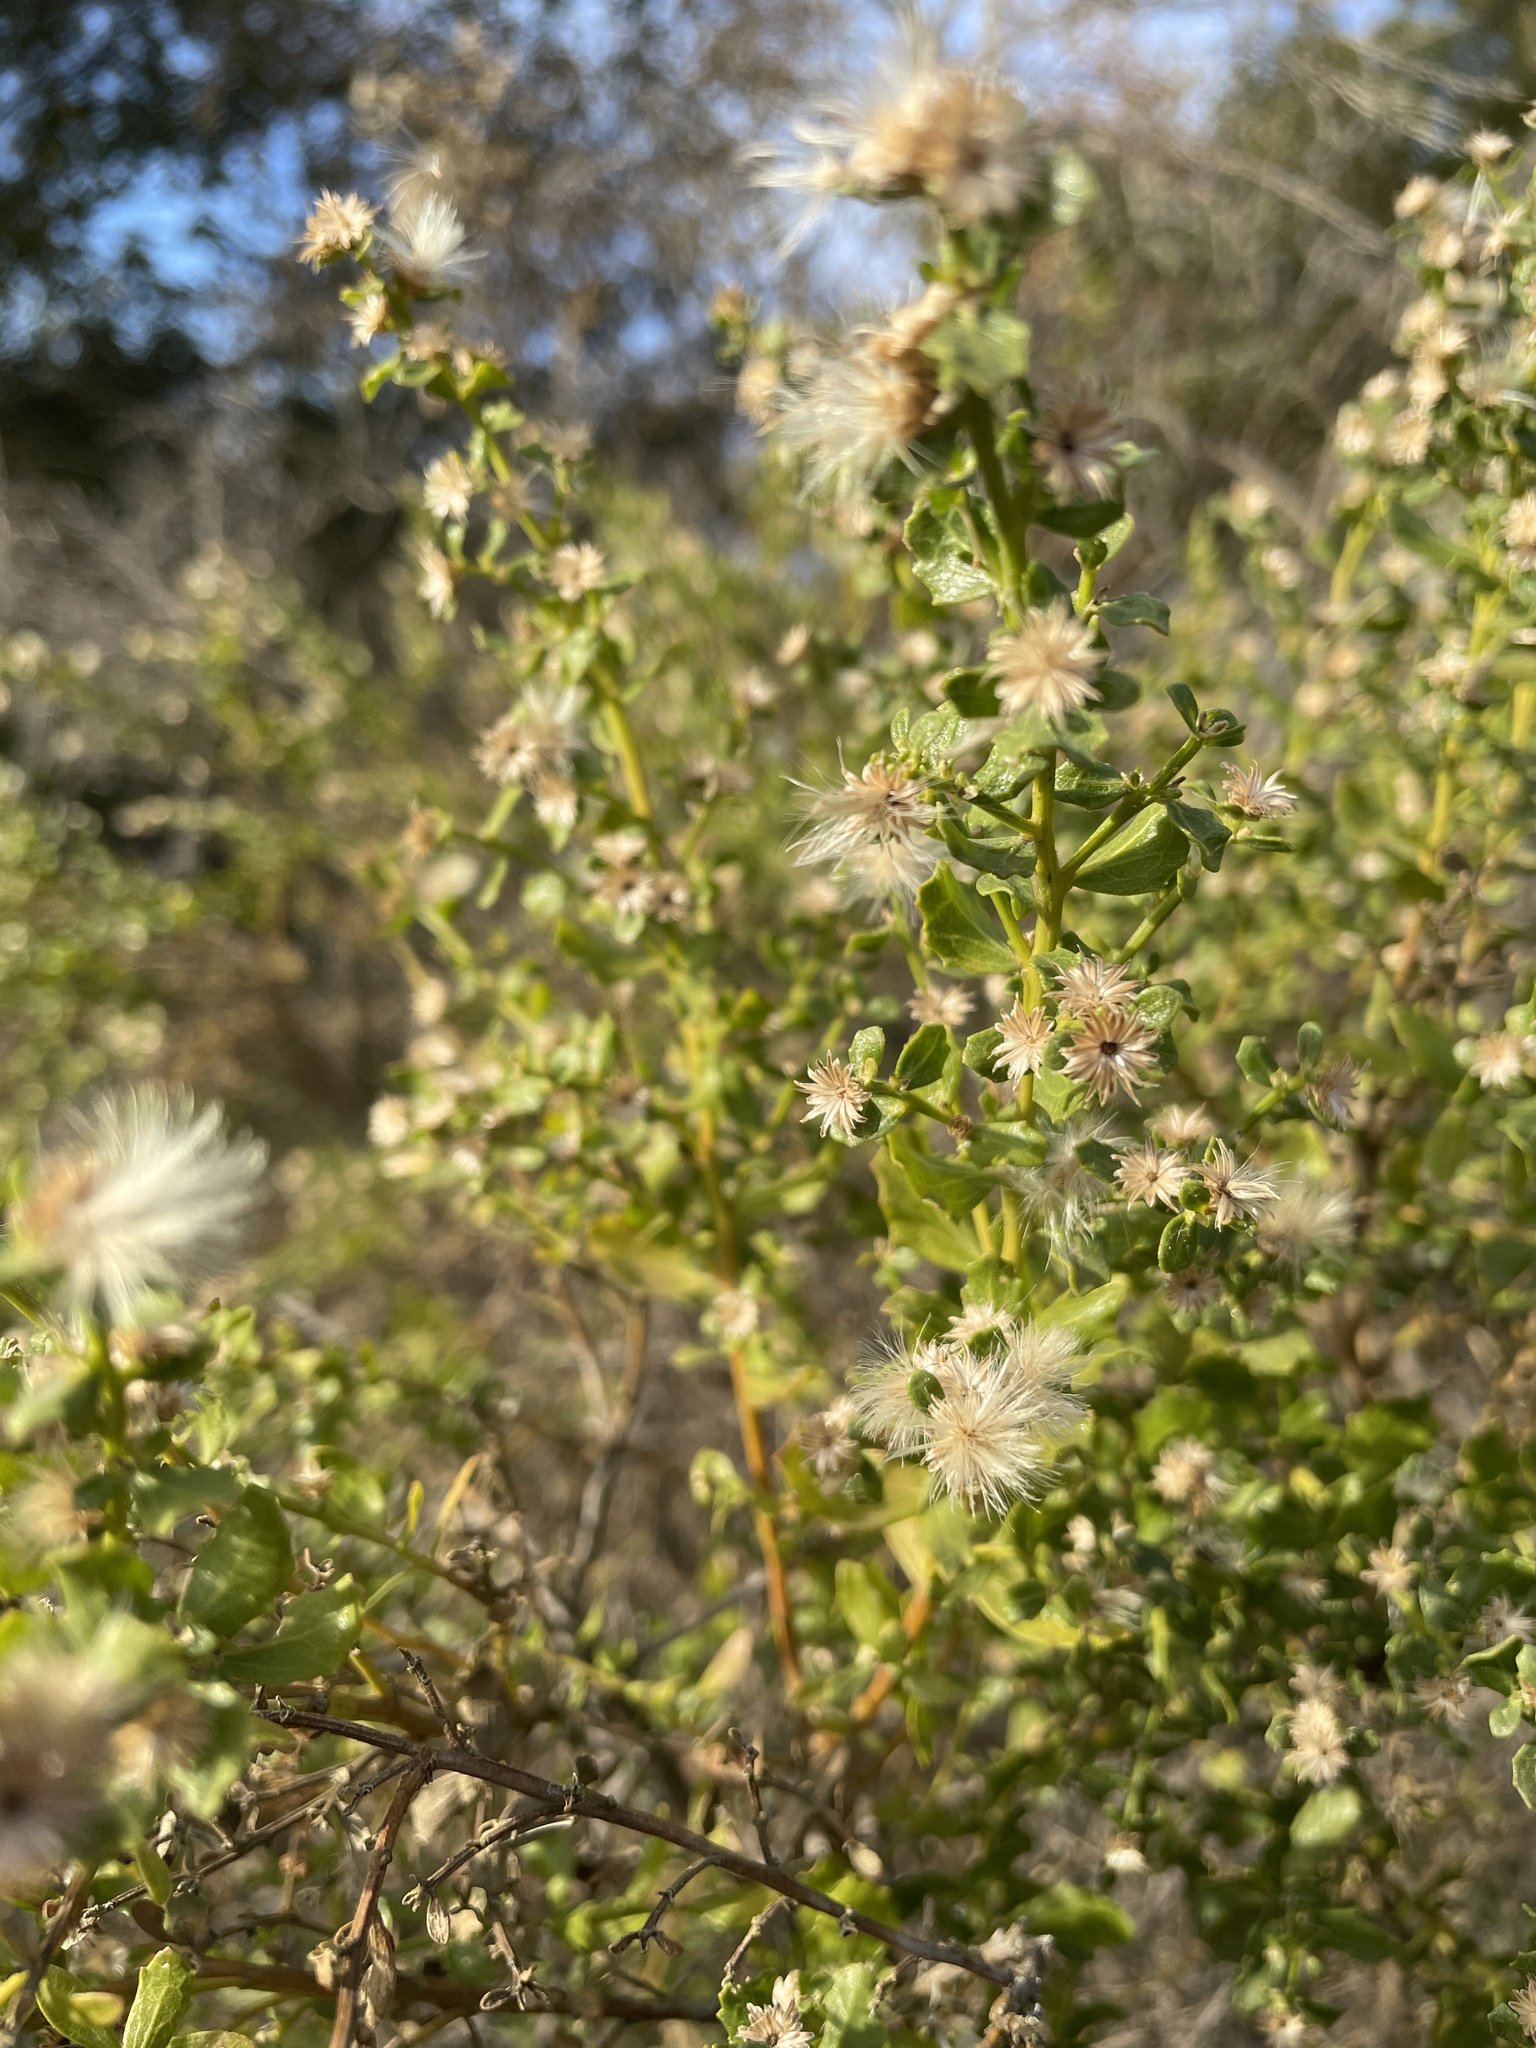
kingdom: Plantae
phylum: Tracheophyta
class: Magnoliopsida
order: Asterales
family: Asteraceae
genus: Baccharis
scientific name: Baccharis pilularis
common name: Coyotebrush
